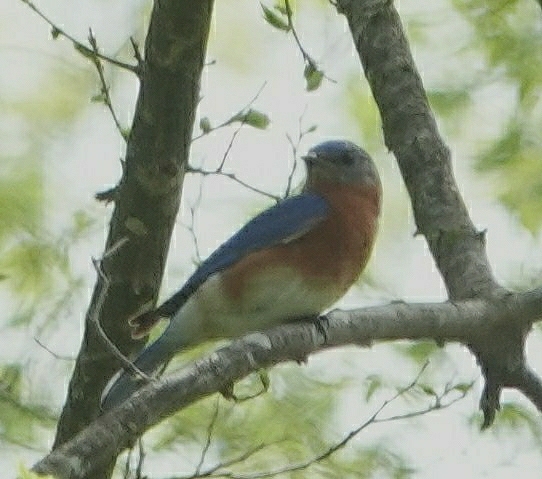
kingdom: Animalia
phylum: Chordata
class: Aves
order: Passeriformes
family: Turdidae
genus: Sialia
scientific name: Sialia sialis
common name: Eastern bluebird
